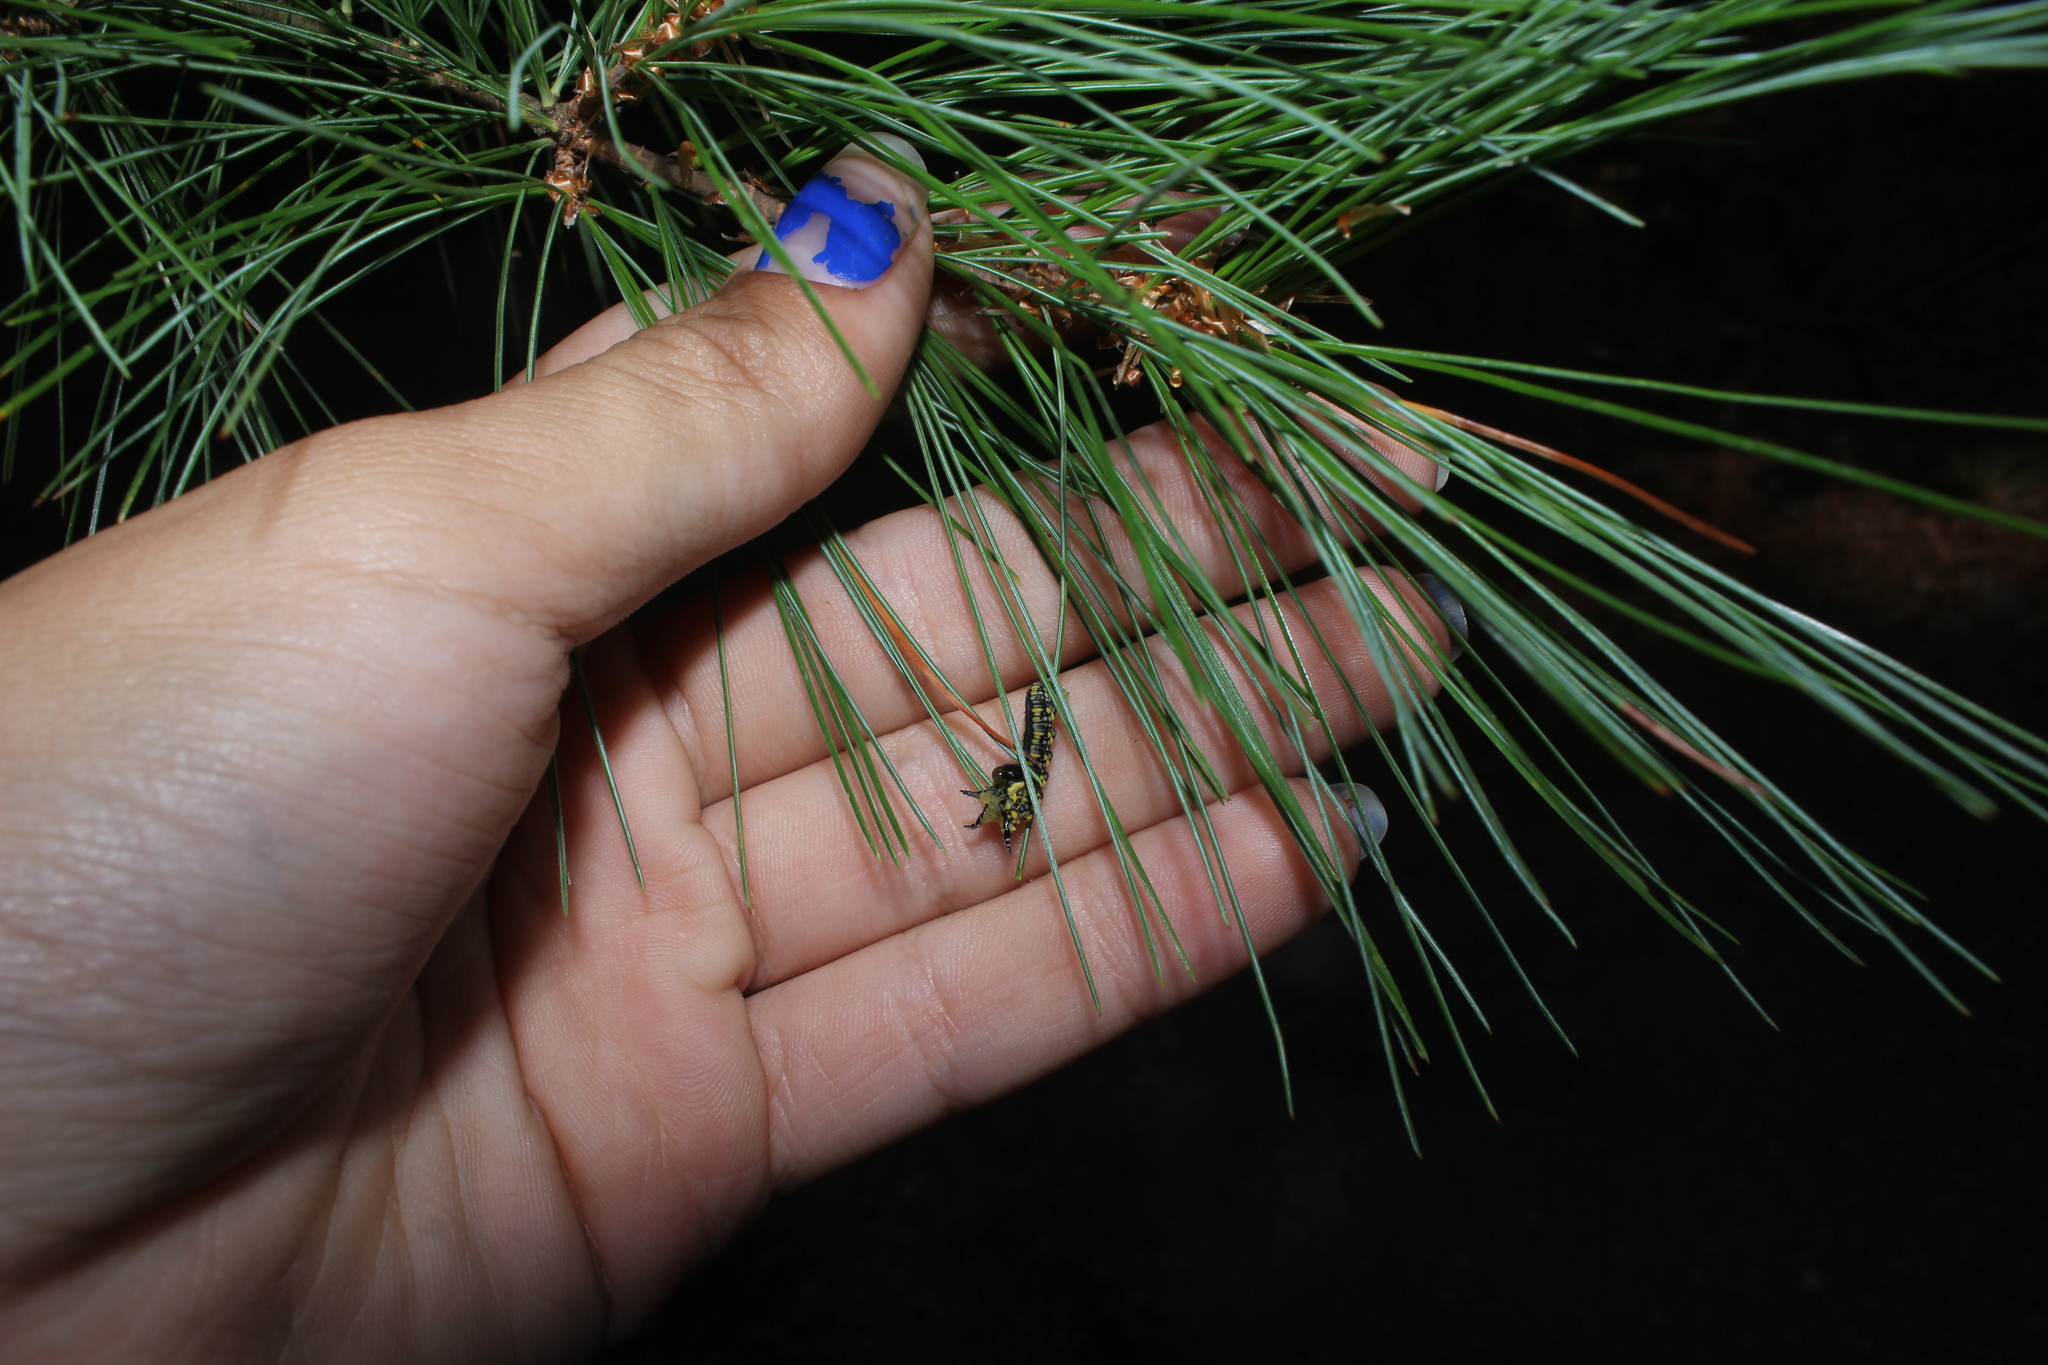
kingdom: Animalia
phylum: Arthropoda
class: Insecta
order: Hymenoptera
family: Diprionidae
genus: Diprion
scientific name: Diprion similis
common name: Pine sawfly
